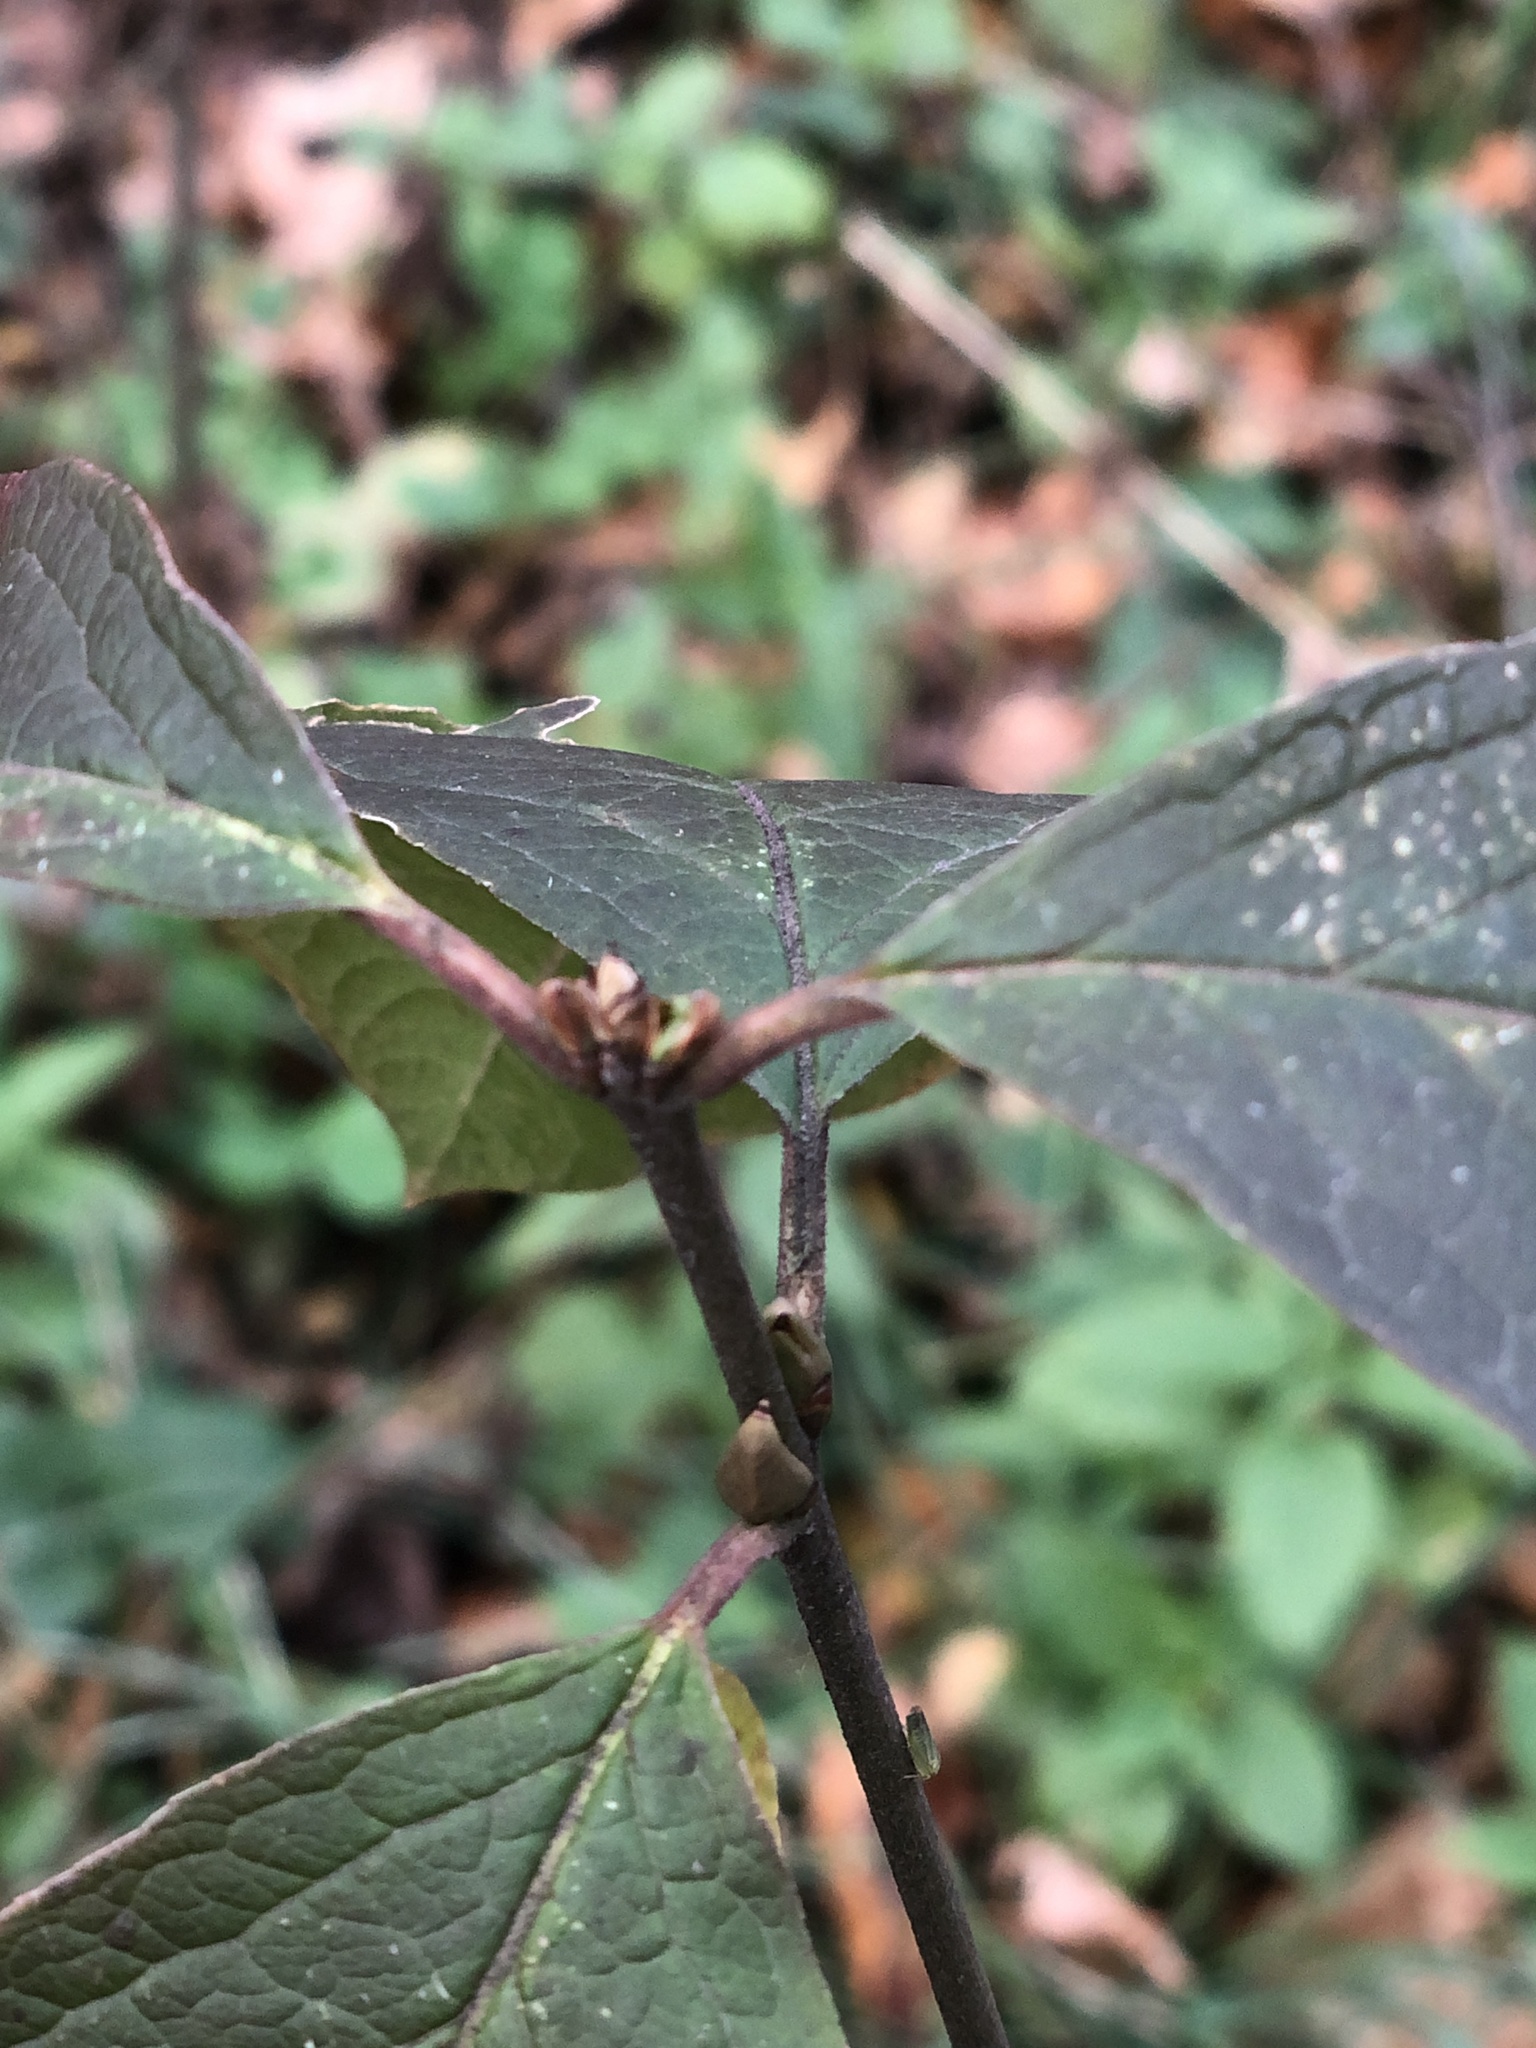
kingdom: Plantae
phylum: Tracheophyta
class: Magnoliopsida
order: Celastrales
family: Celastraceae
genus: Euonymus
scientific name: Euonymus europaeus
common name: Spindle
